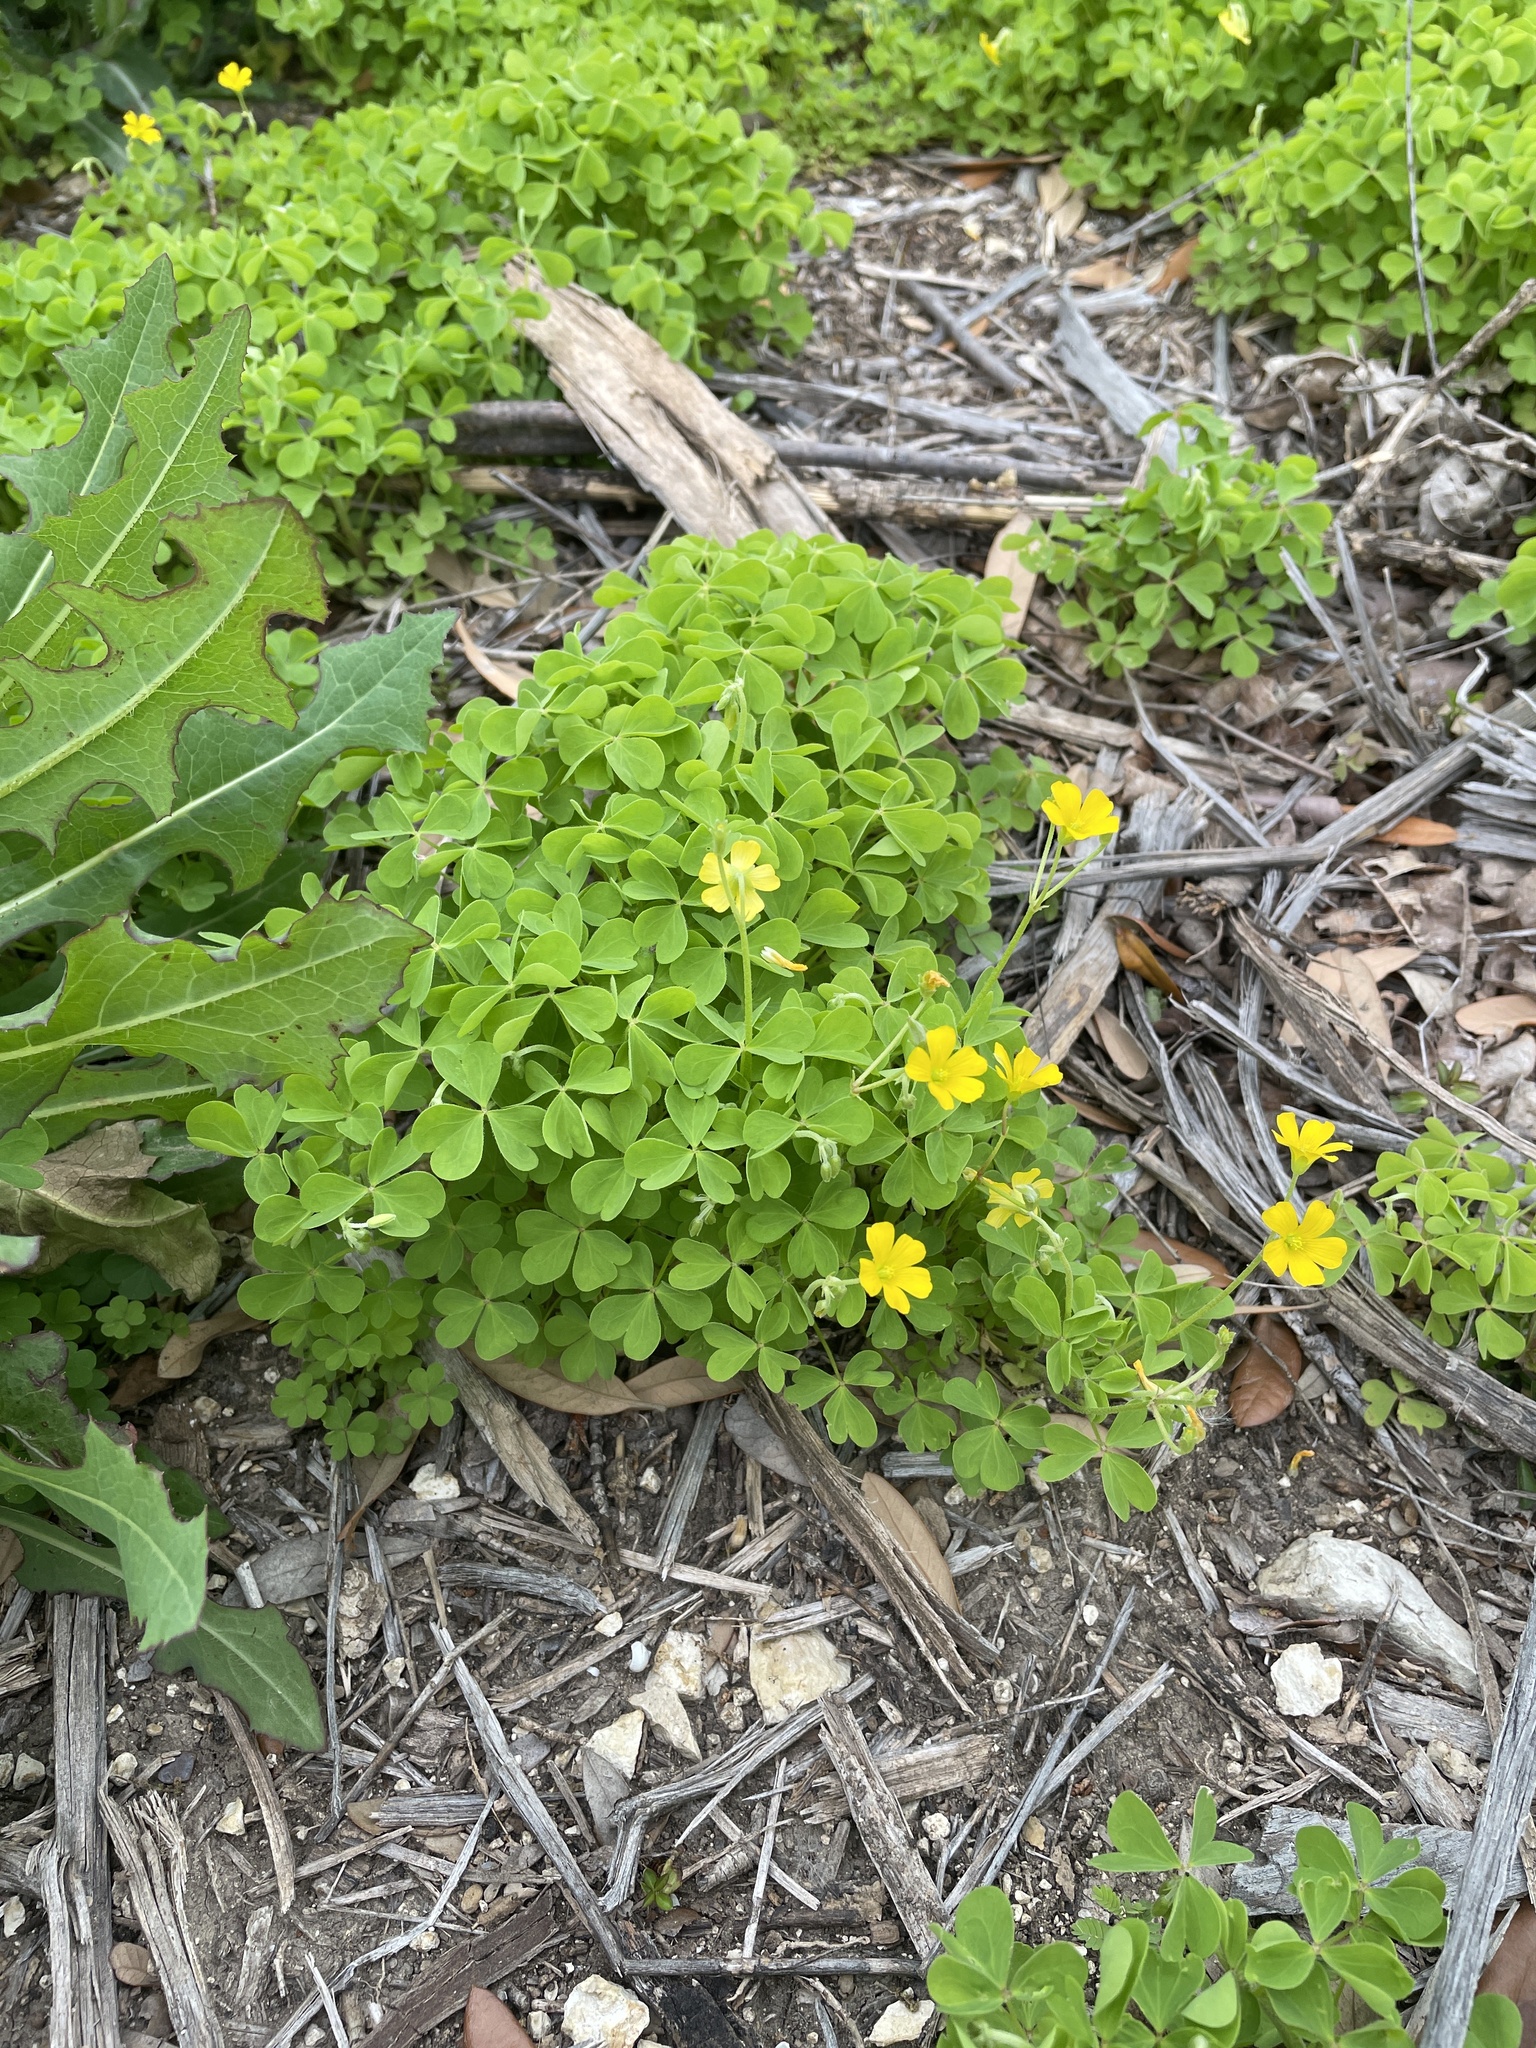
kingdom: Plantae
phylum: Tracheophyta
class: Magnoliopsida
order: Oxalidales
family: Oxalidaceae
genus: Oxalis
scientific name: Oxalis dillenii
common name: Sussex yellow-sorrel
